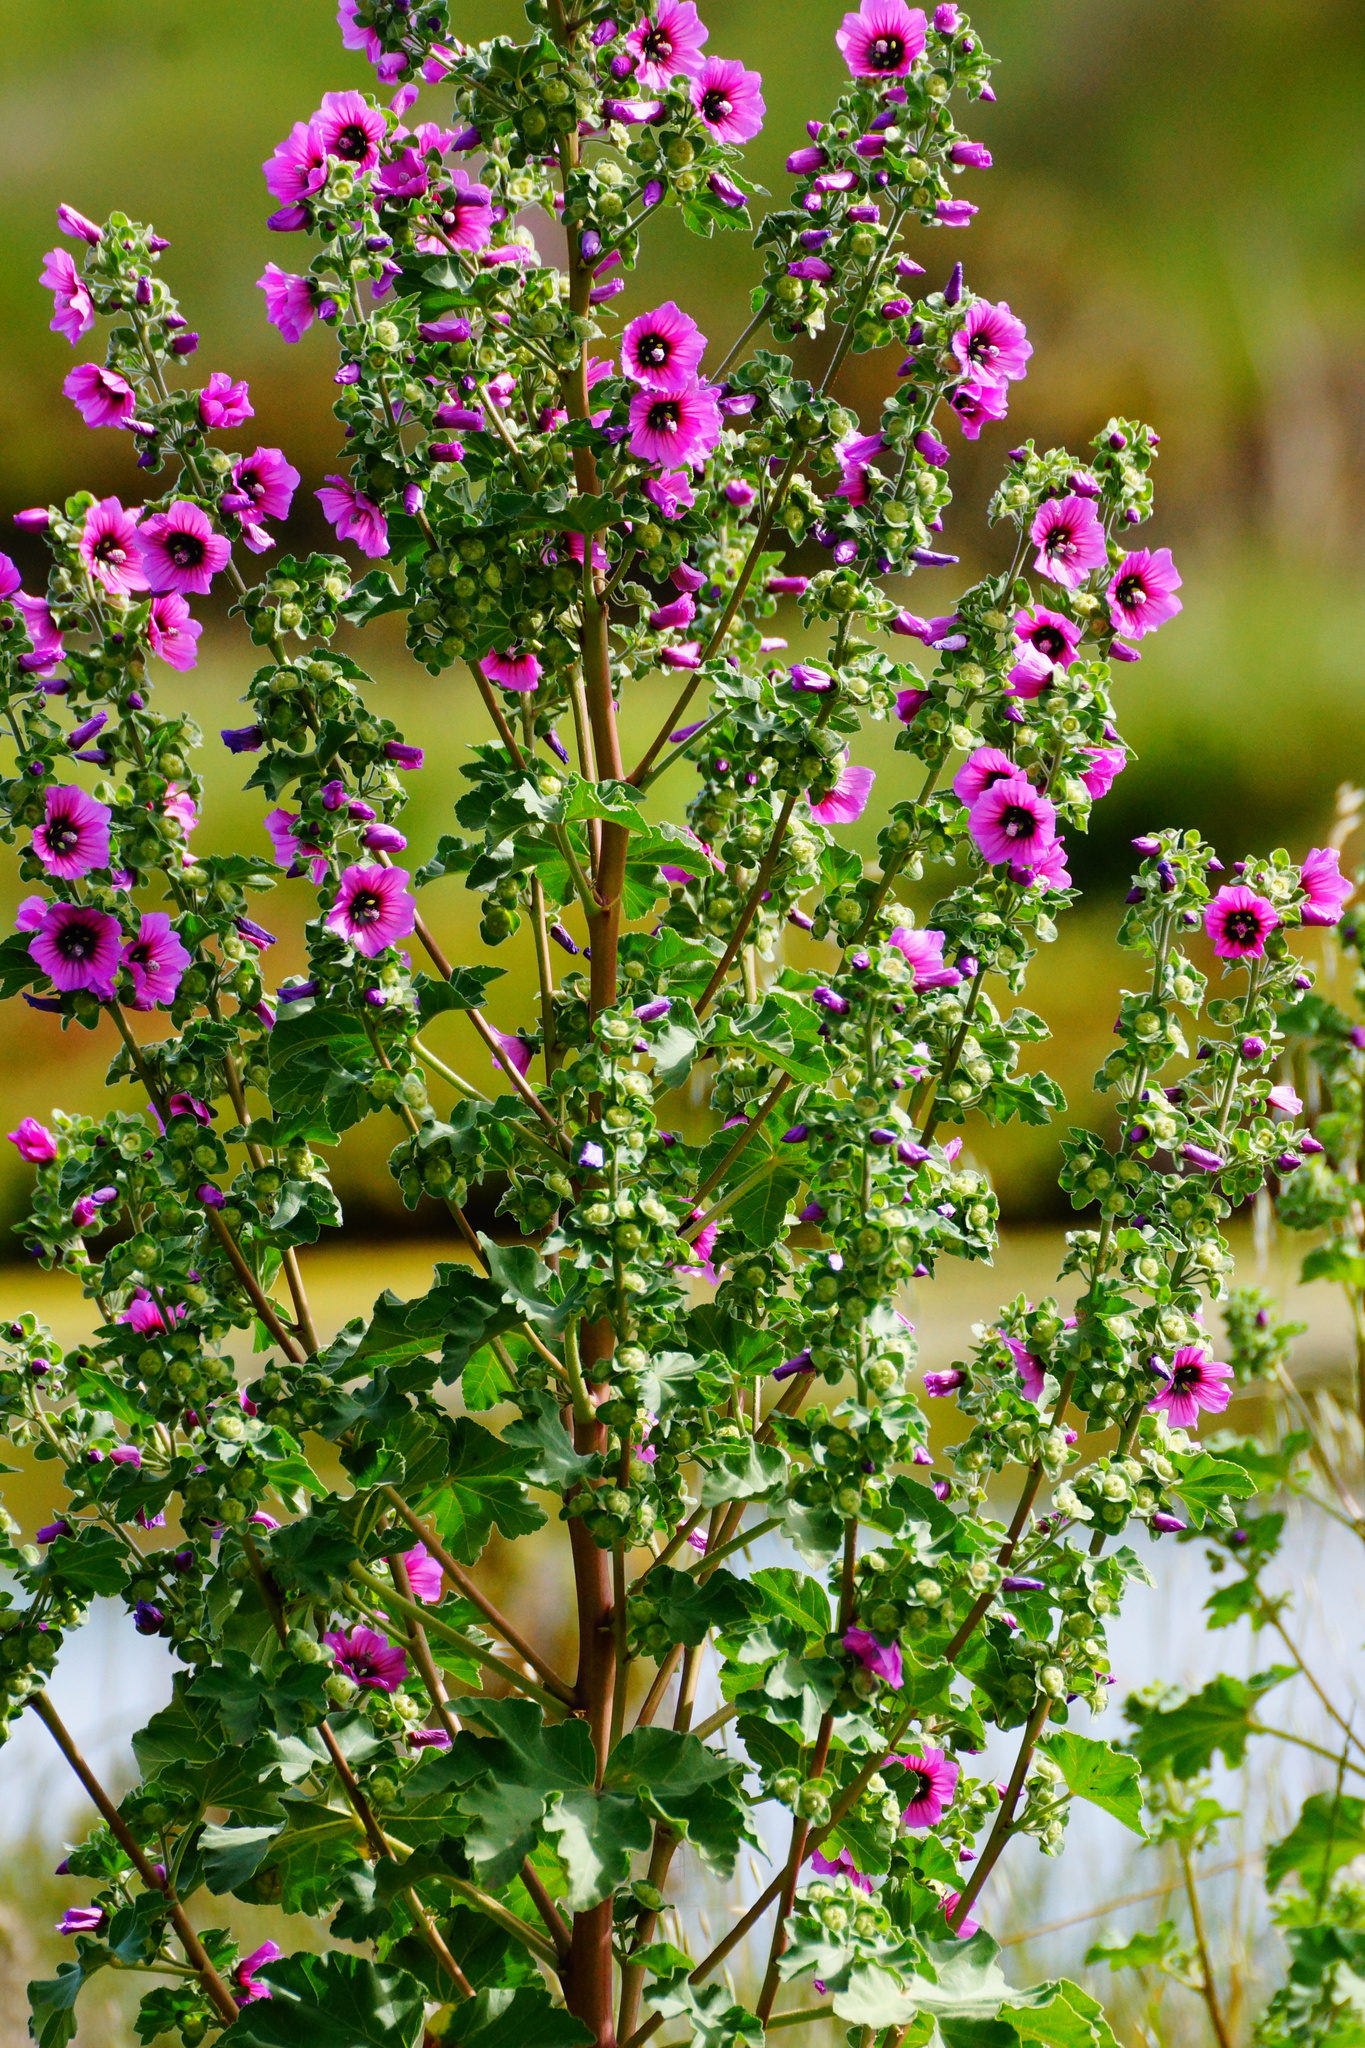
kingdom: Plantae
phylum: Tracheophyta
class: Magnoliopsida
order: Malvales
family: Malvaceae
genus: Malva
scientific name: Malva arborea
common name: Tree mallow
